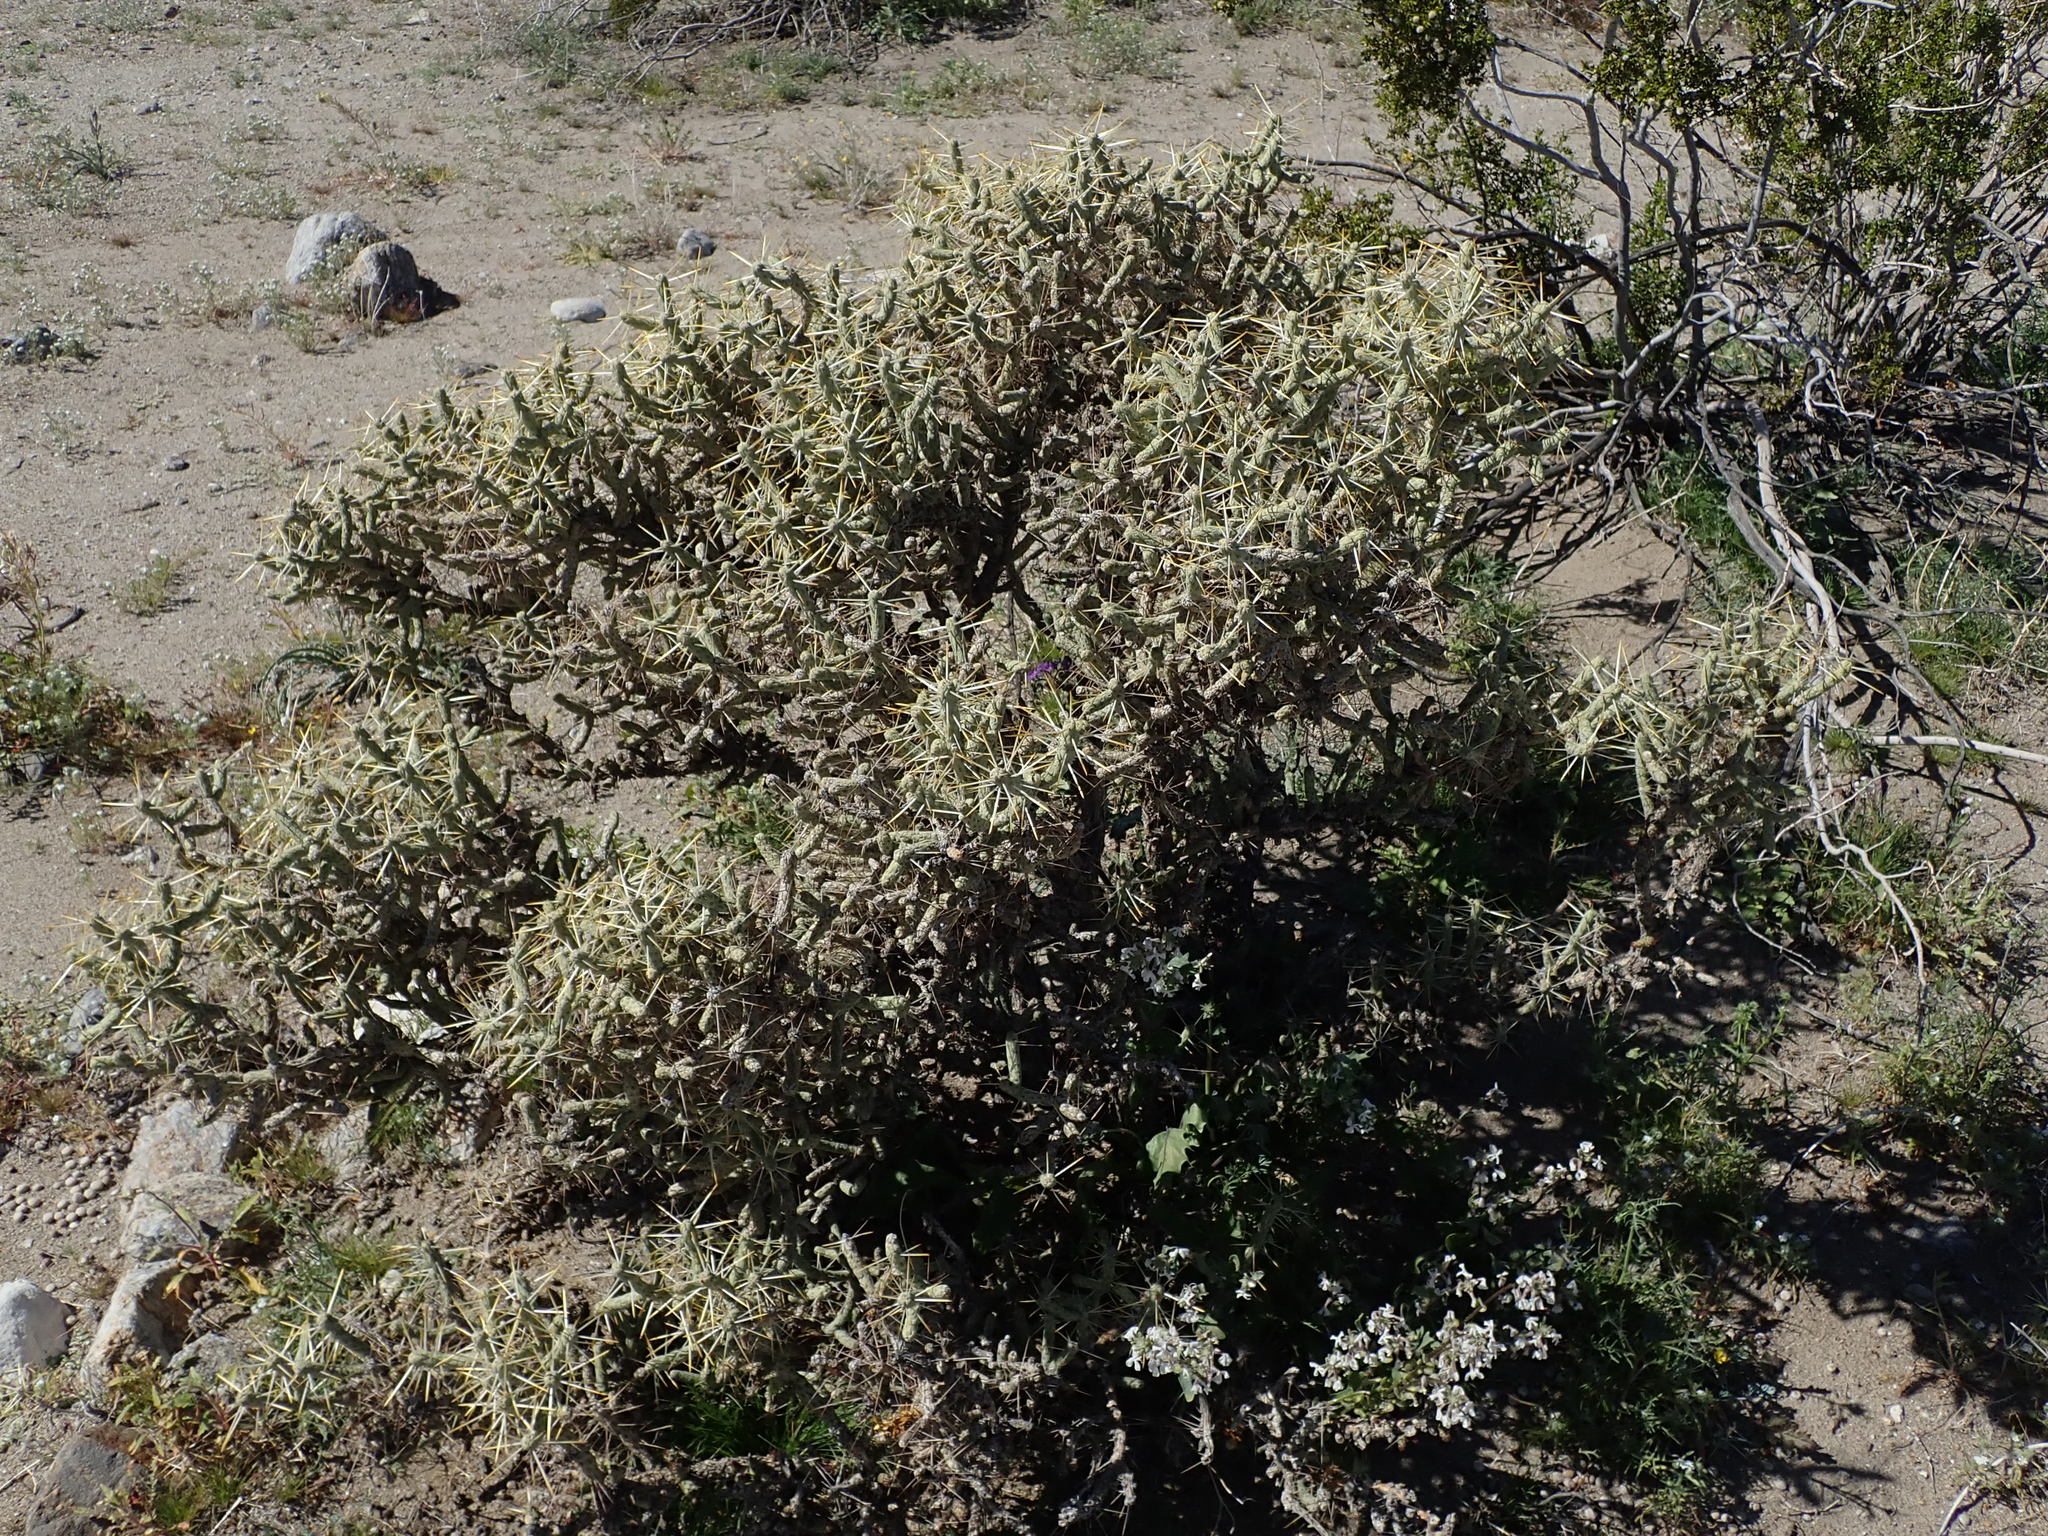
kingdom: Plantae
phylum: Tracheophyta
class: Magnoliopsida
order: Caryophyllales
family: Cactaceae
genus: Cylindropuntia
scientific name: Cylindropuntia ramosissima
